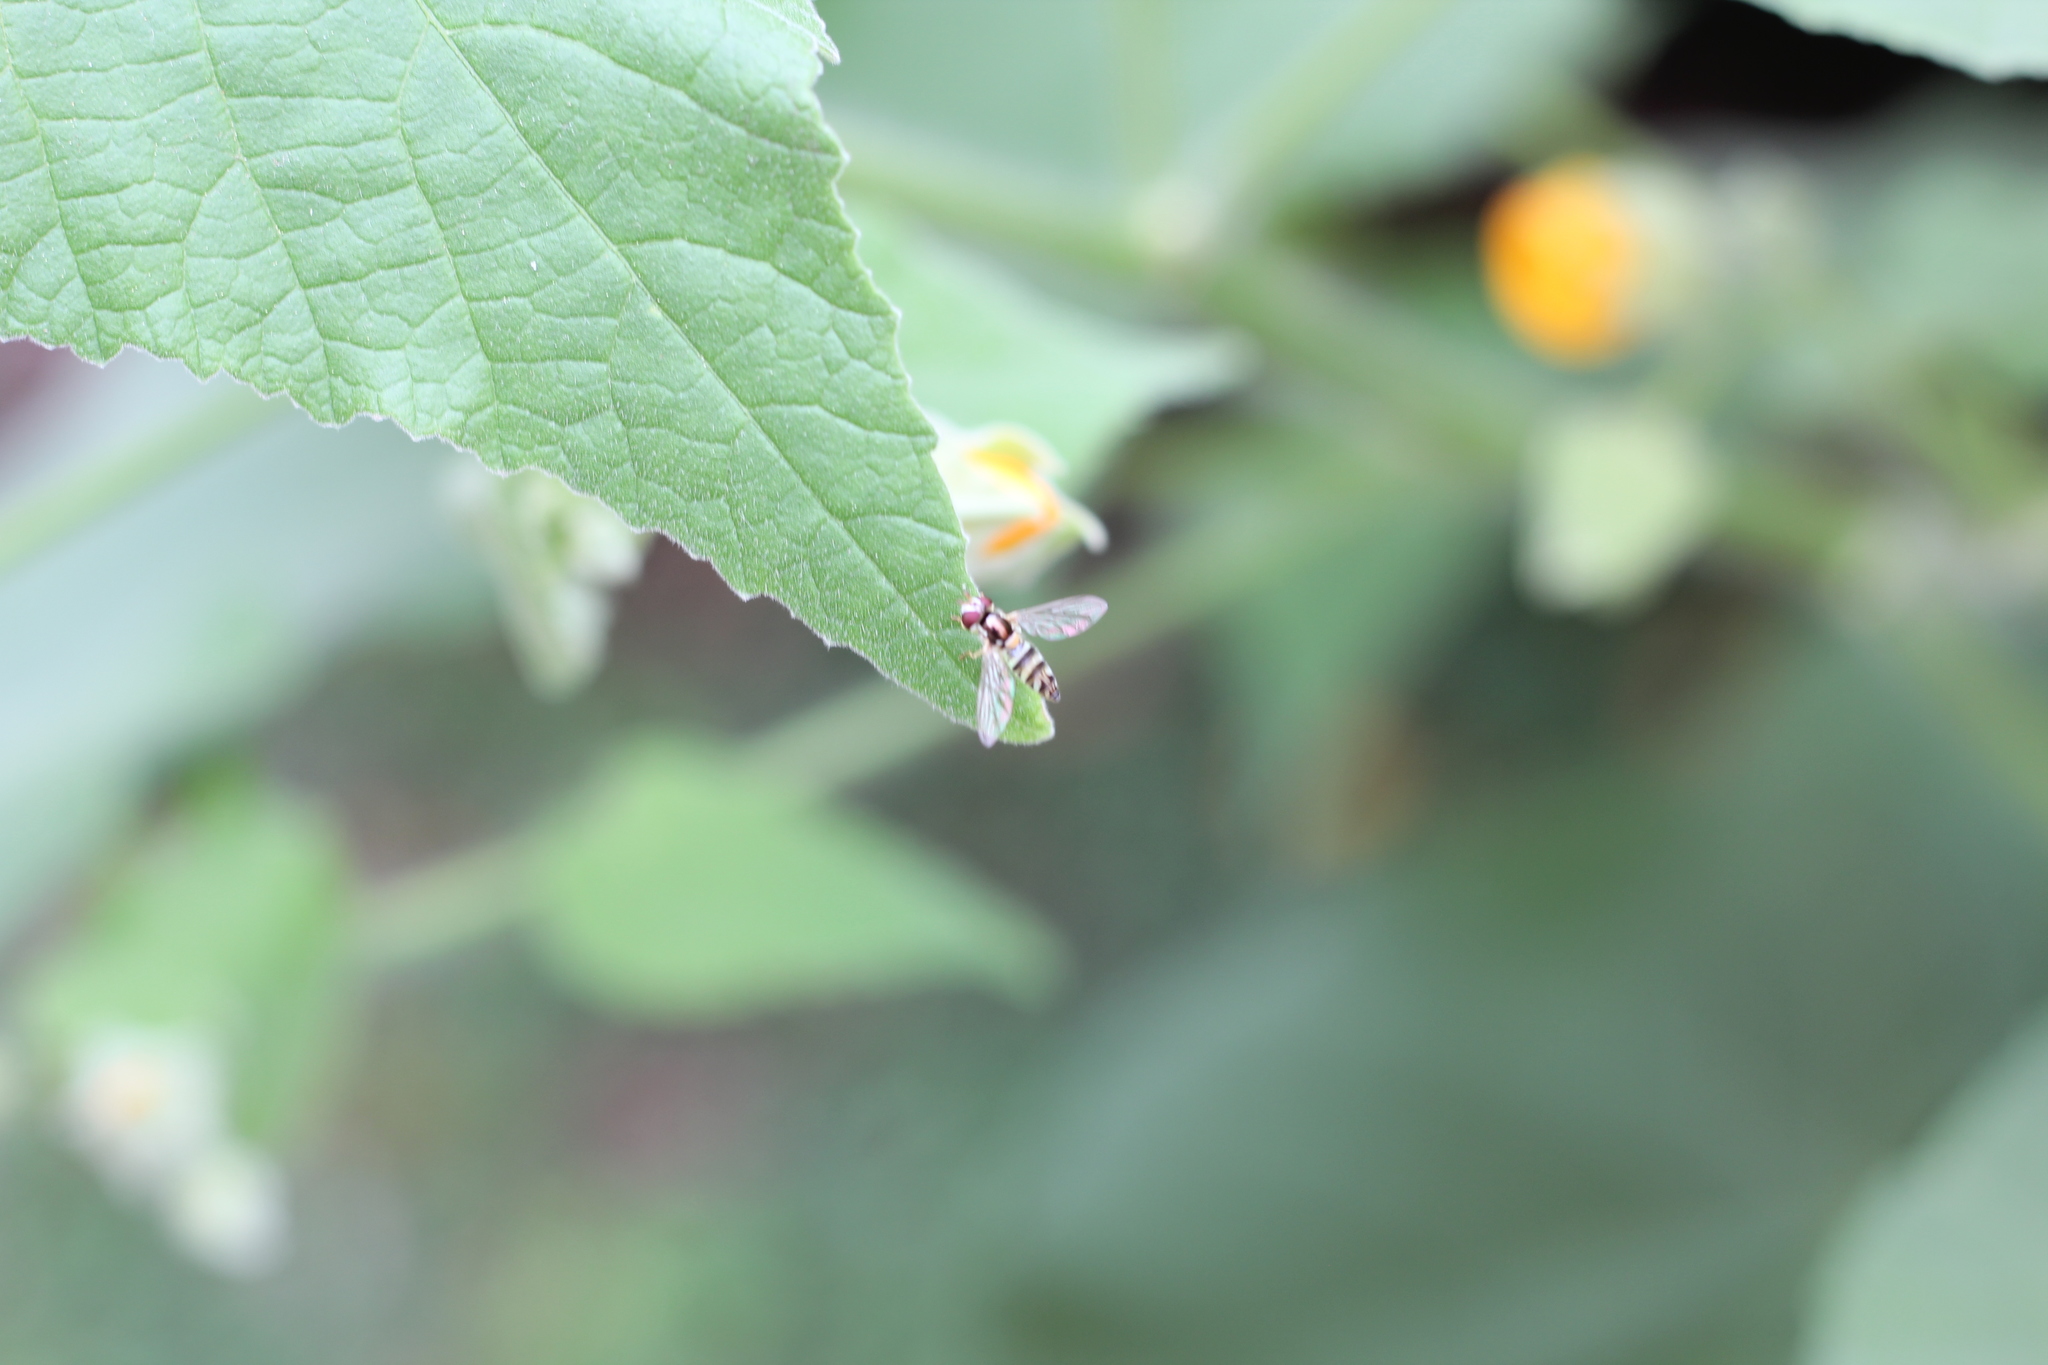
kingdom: Animalia
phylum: Arthropoda
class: Insecta
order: Diptera
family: Syrphidae
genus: Allograpta
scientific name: Allograpta
